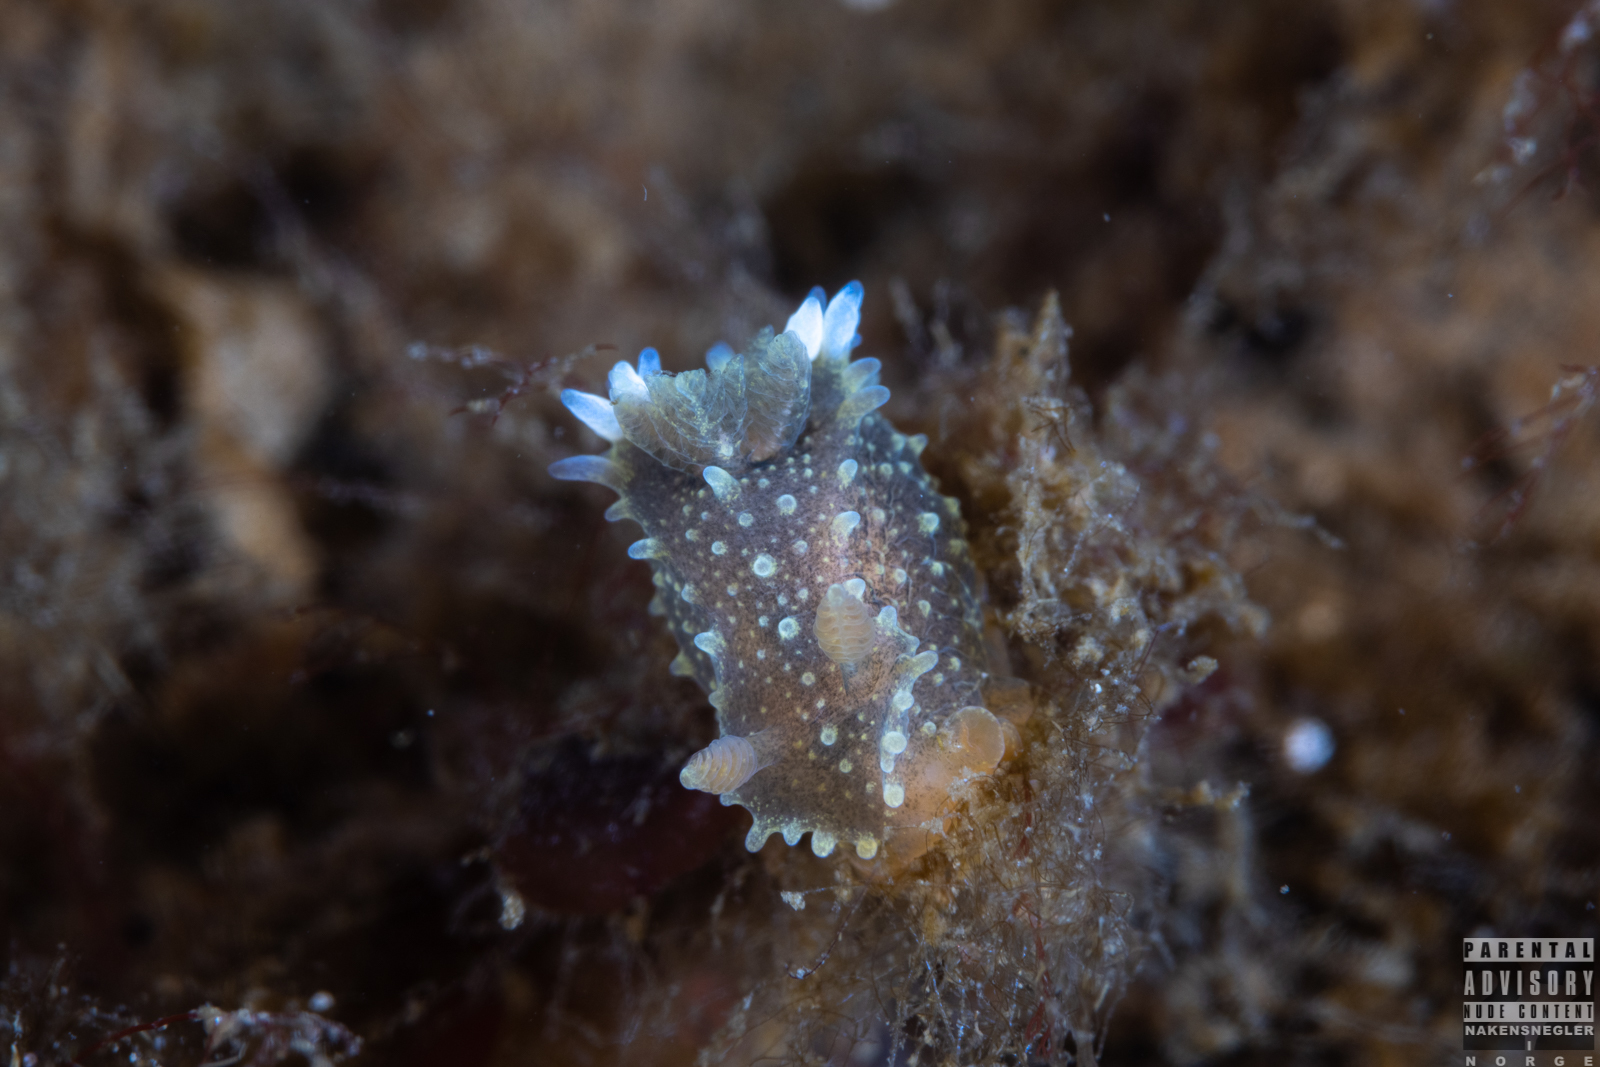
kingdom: Animalia
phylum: Mollusca
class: Gastropoda
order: Nudibranchia
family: Polyceridae
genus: Palio
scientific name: Palio dubia
